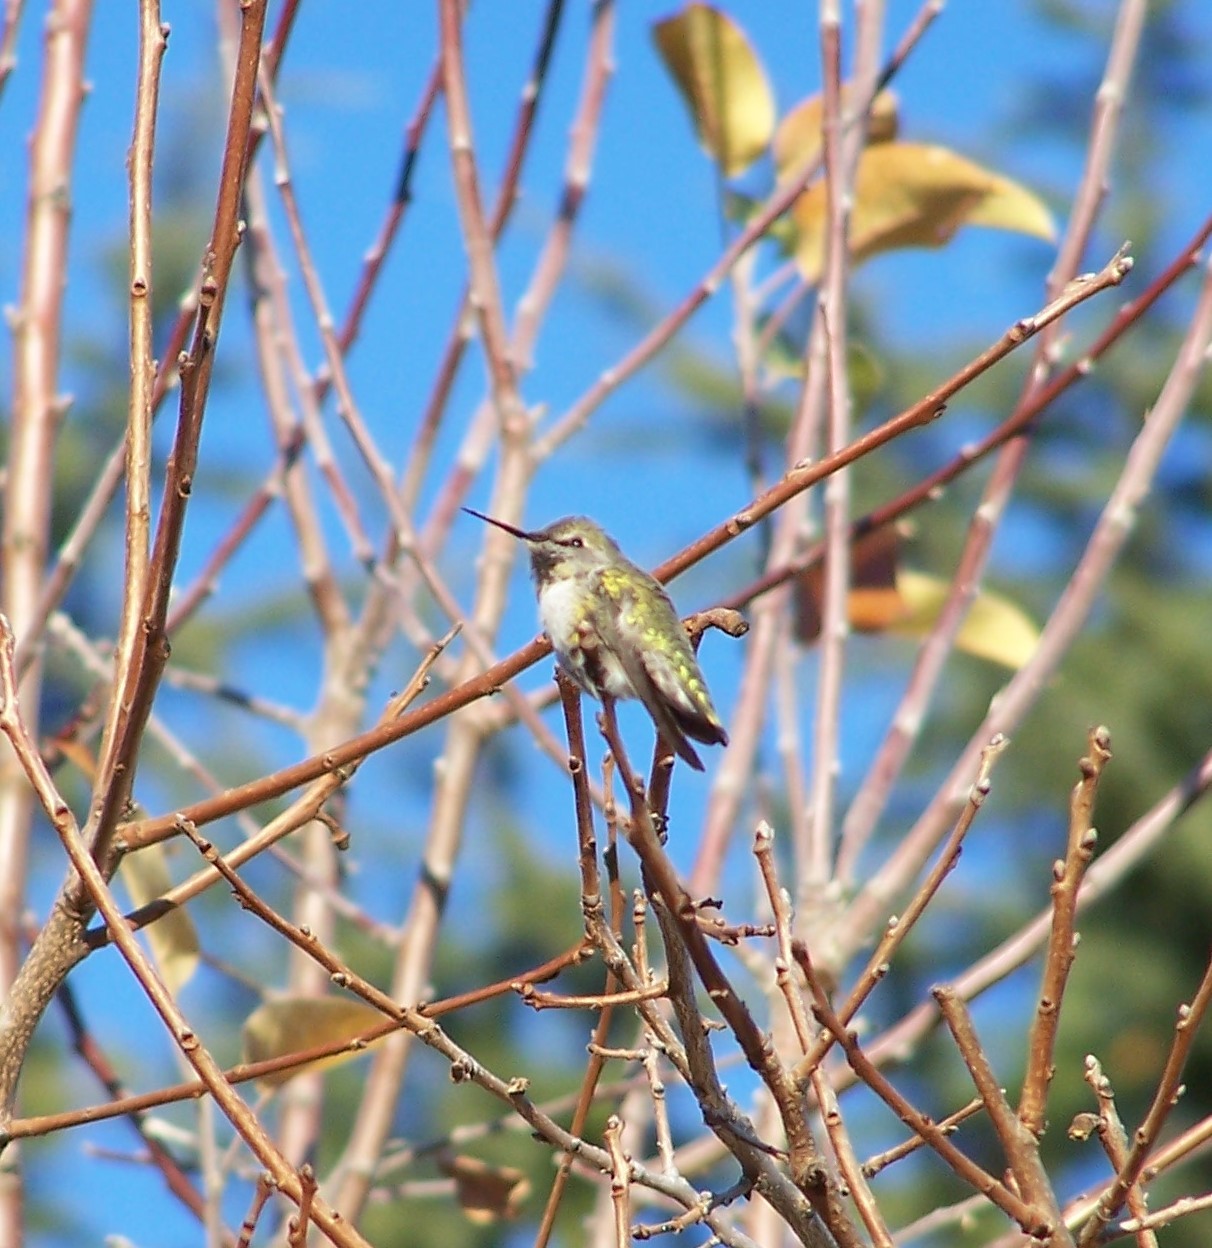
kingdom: Animalia
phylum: Chordata
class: Aves
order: Apodiformes
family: Trochilidae
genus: Calypte
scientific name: Calypte anna
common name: Anna's hummingbird
